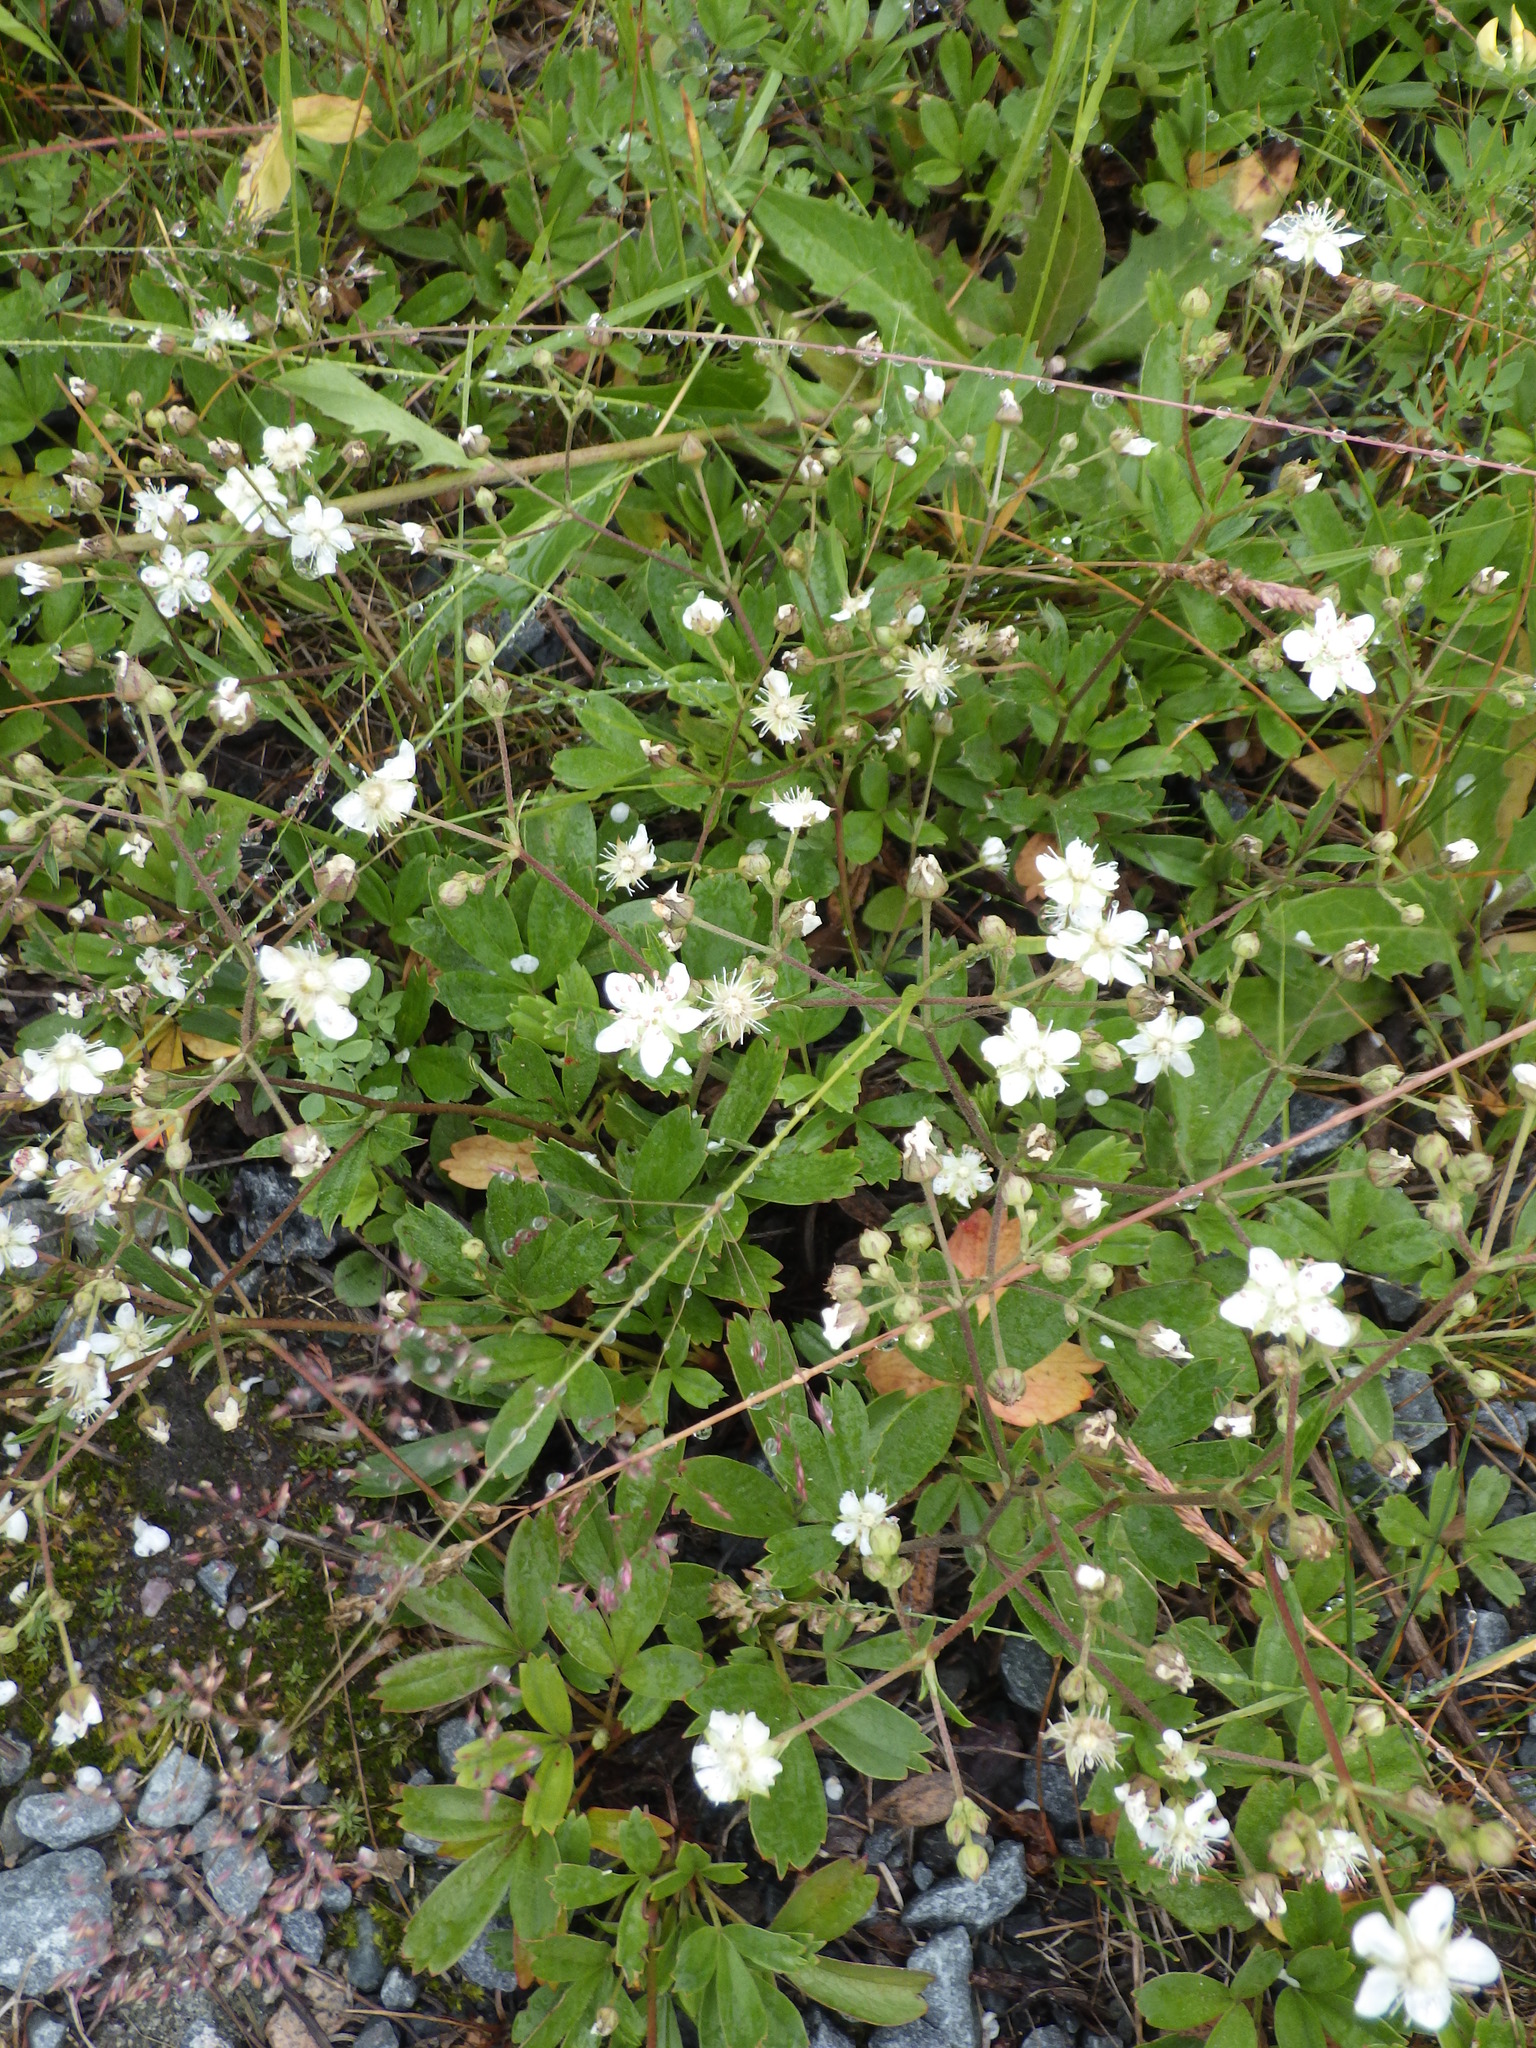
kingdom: Plantae
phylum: Tracheophyta
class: Magnoliopsida
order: Rosales
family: Rosaceae
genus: Sibbaldia
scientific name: Sibbaldia tridentata
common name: Three-toothed cinquefoil
